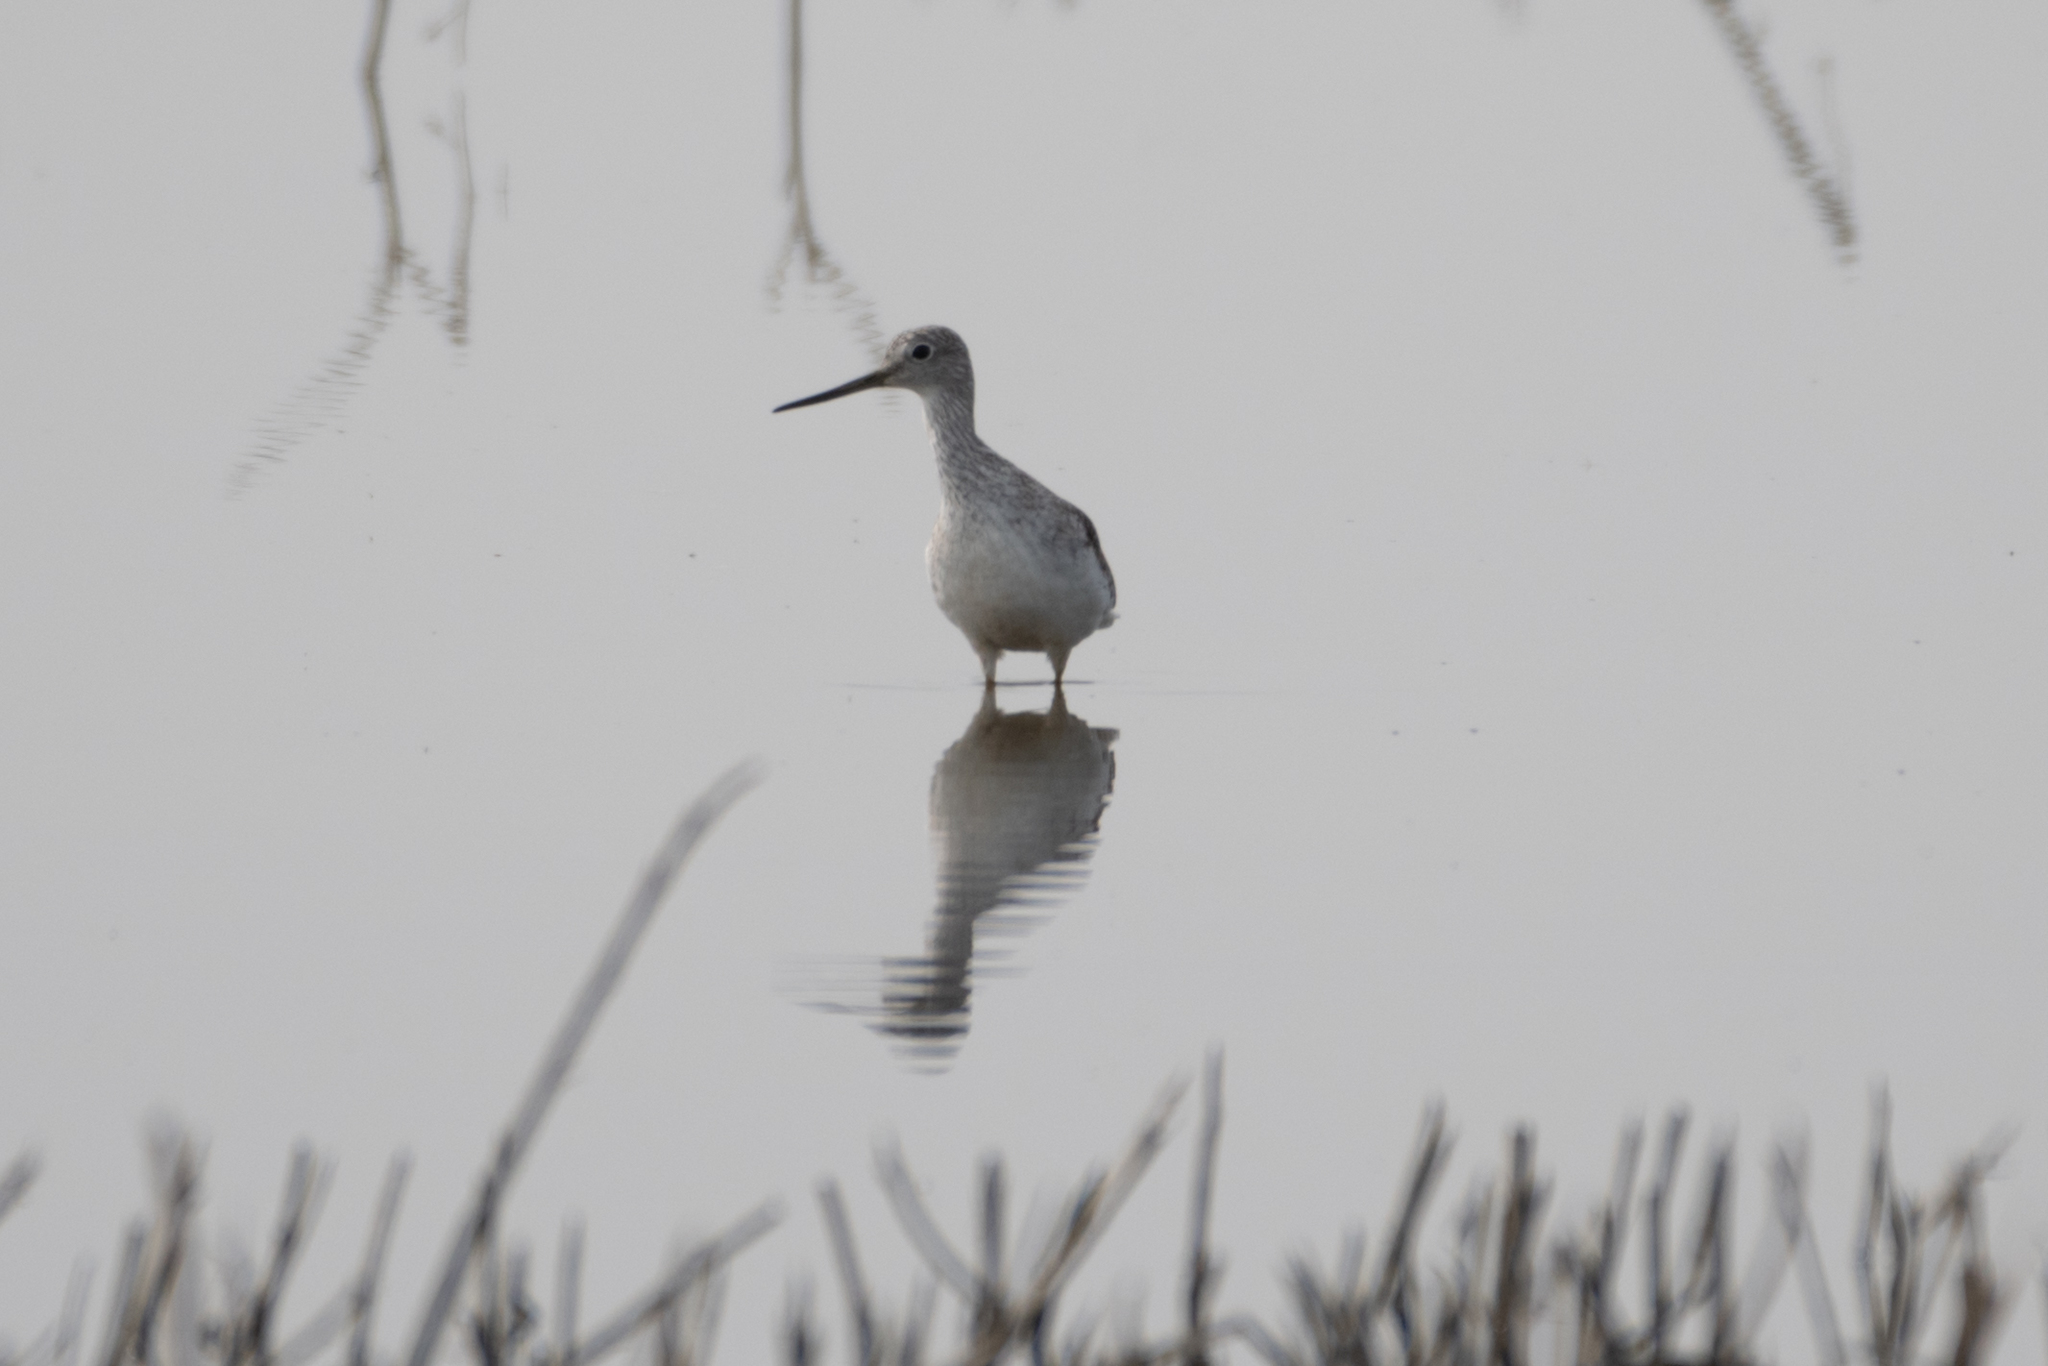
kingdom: Animalia
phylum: Chordata
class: Aves
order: Charadriiformes
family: Scolopacidae
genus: Tringa
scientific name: Tringa melanoleuca
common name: Greater yellowlegs
